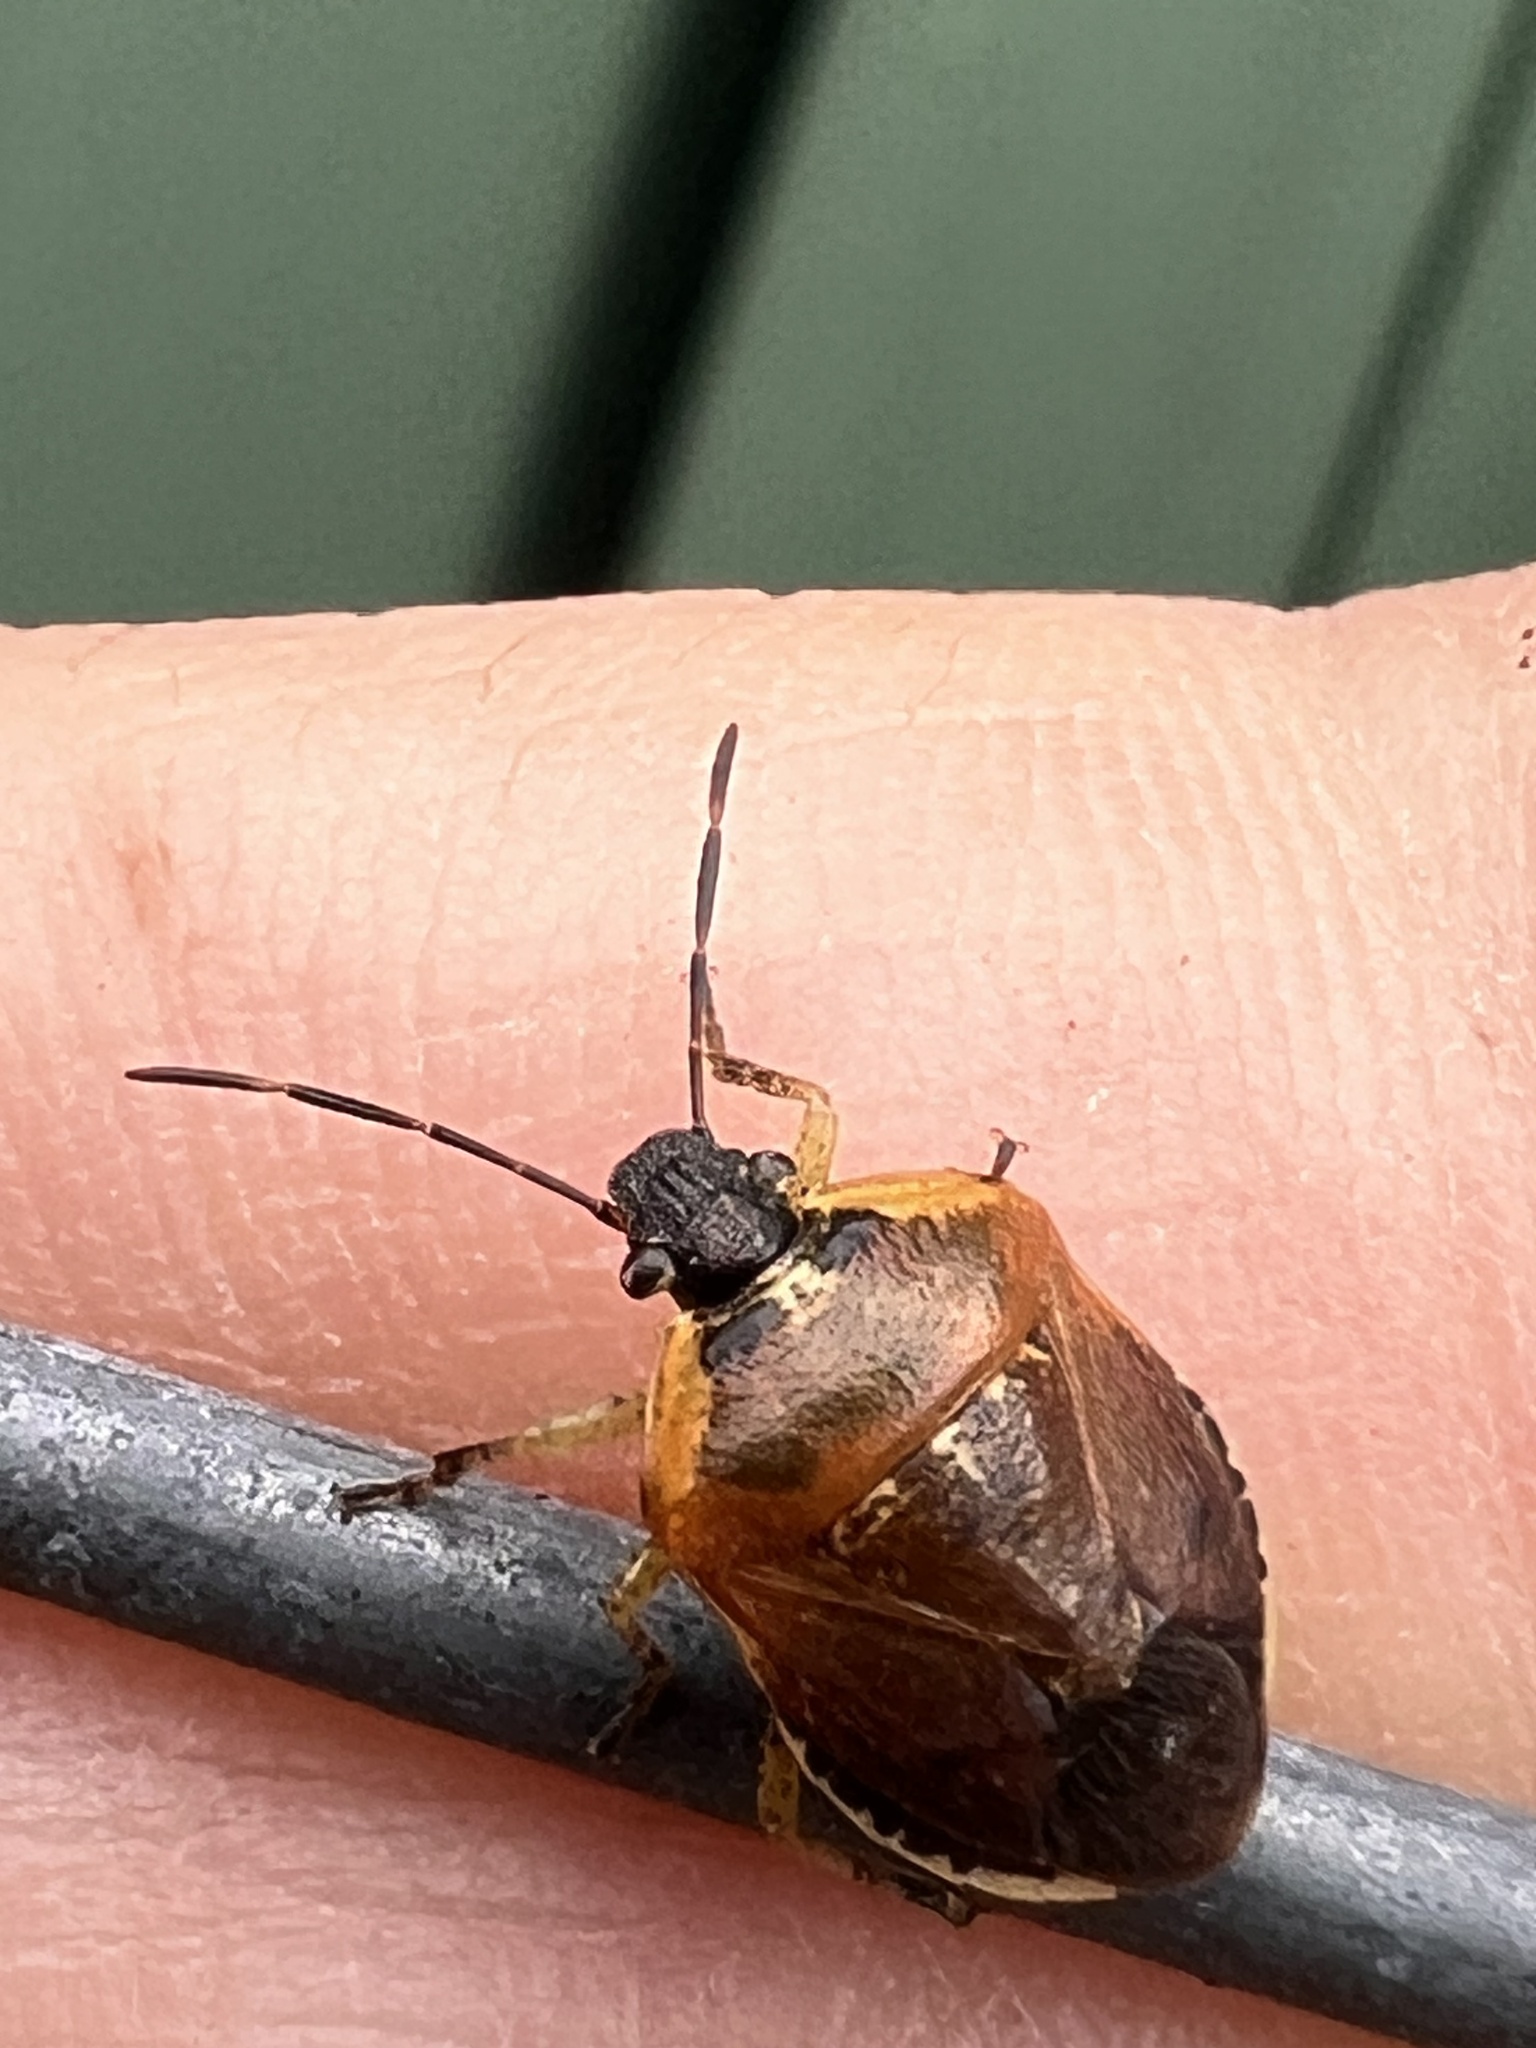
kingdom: Animalia
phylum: Arthropoda
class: Insecta
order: Hemiptera
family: Pentatomidae
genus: Monteithiella
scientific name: Monteithiella
